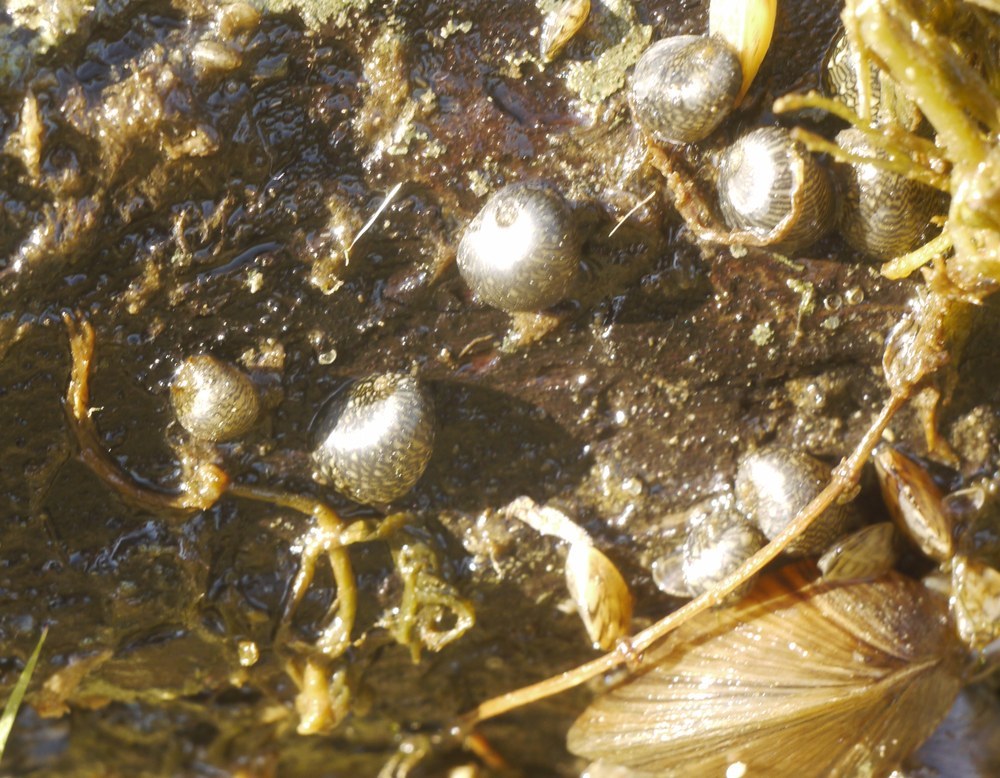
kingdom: Animalia
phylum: Mollusca
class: Gastropoda
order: Cycloneritida
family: Neritidae
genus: Theodoxus
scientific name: Theodoxus fluviatilis
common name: River nerite
